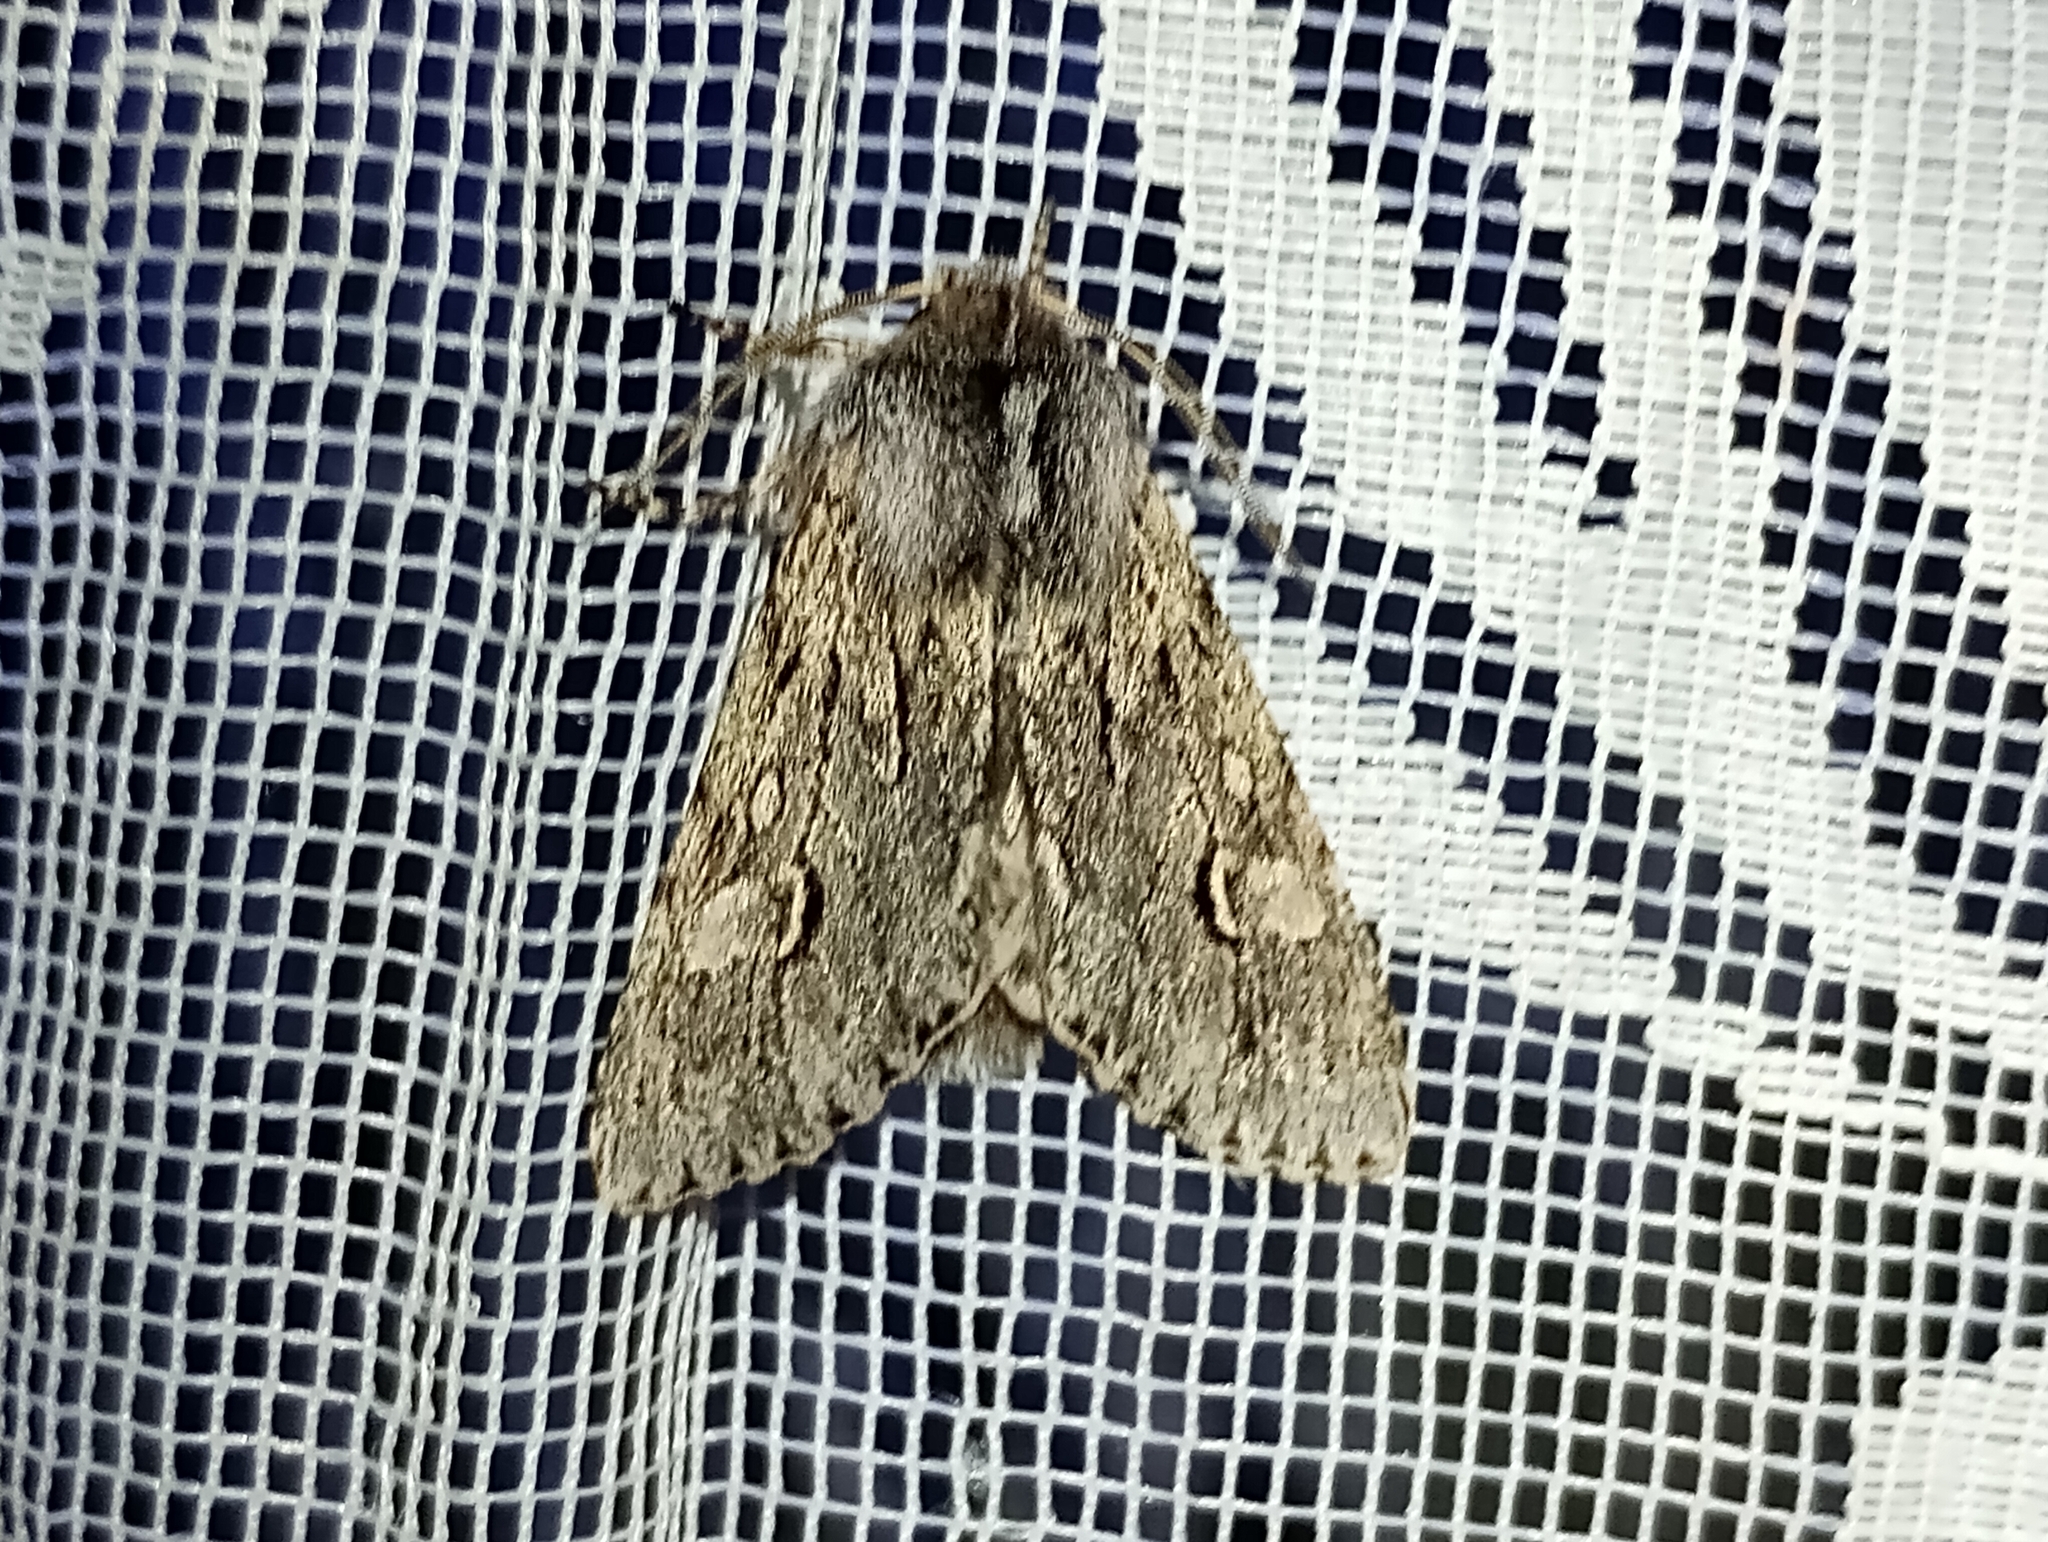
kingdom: Animalia
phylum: Arthropoda
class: Insecta
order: Lepidoptera
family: Noctuidae
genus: Brachionycha
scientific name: Brachionycha nubeculosa
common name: Rannoch sprawler
